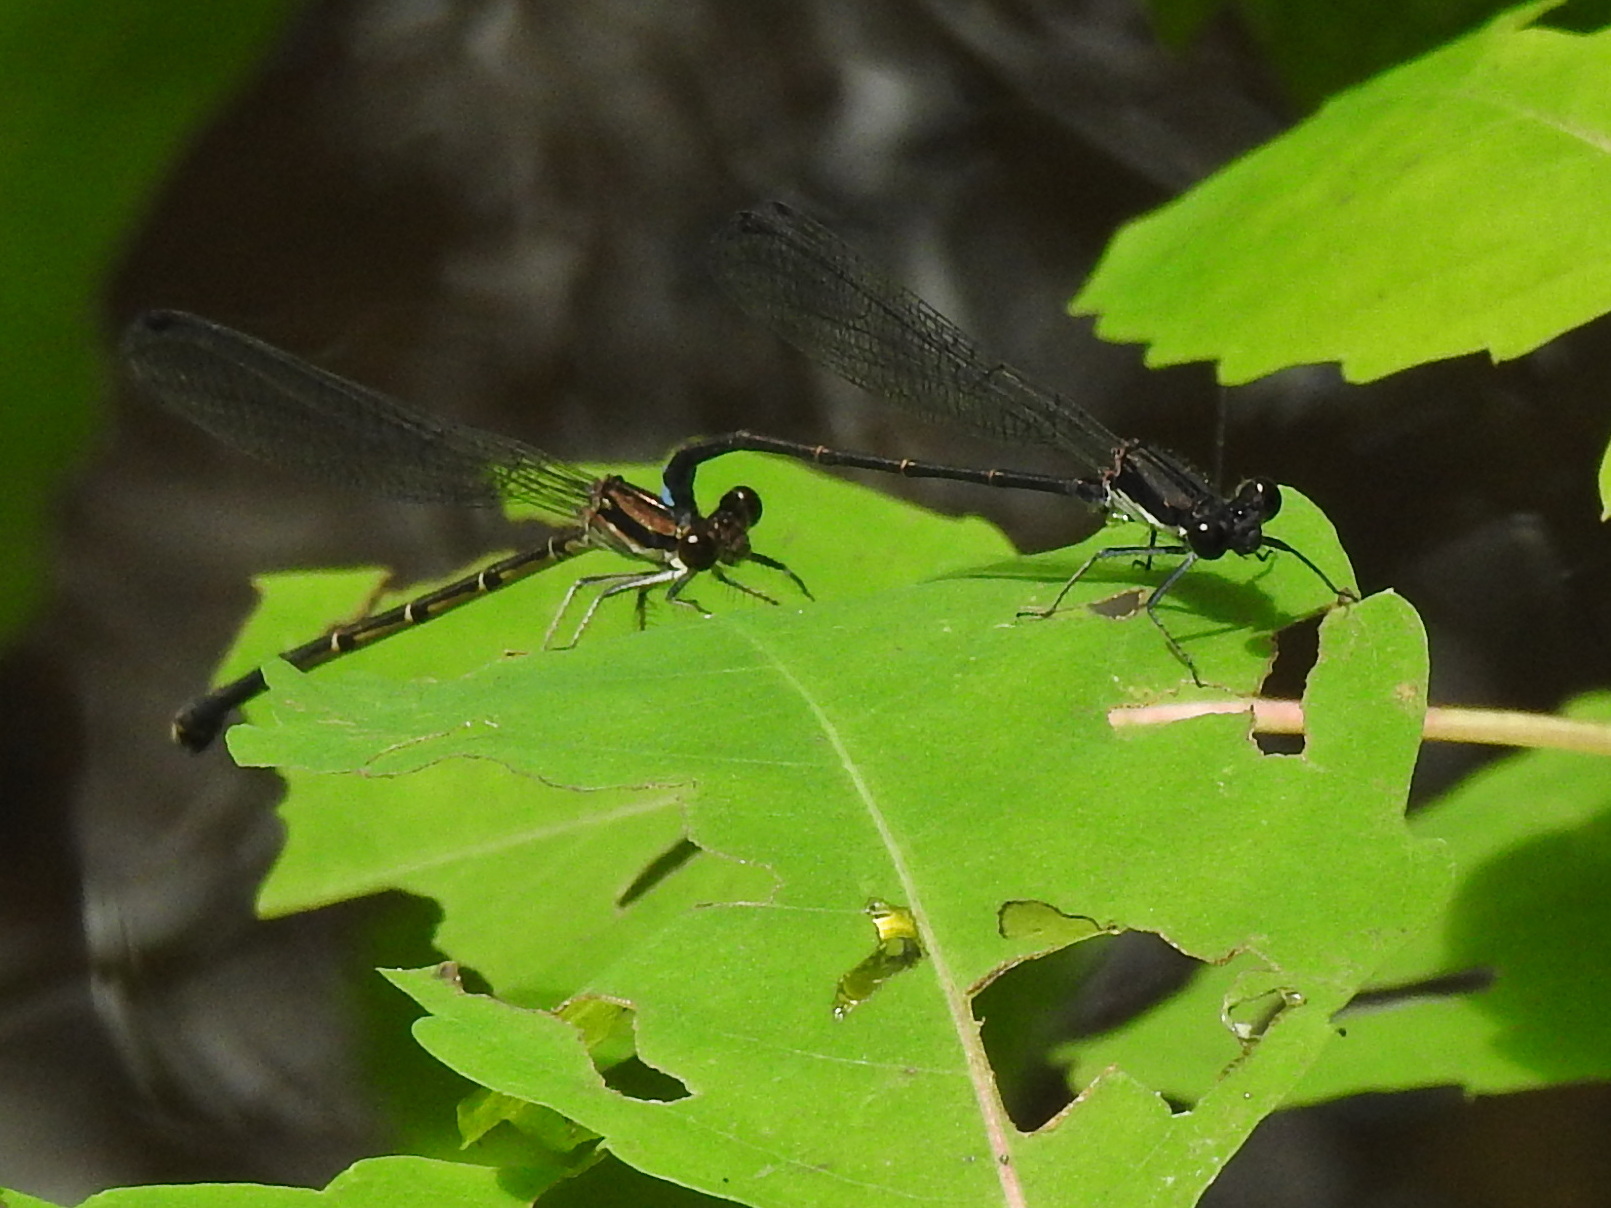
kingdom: Animalia
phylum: Arthropoda
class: Insecta
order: Odonata
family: Coenagrionidae
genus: Argia
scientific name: Argia tibialis
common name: Blue-tipped dancer
